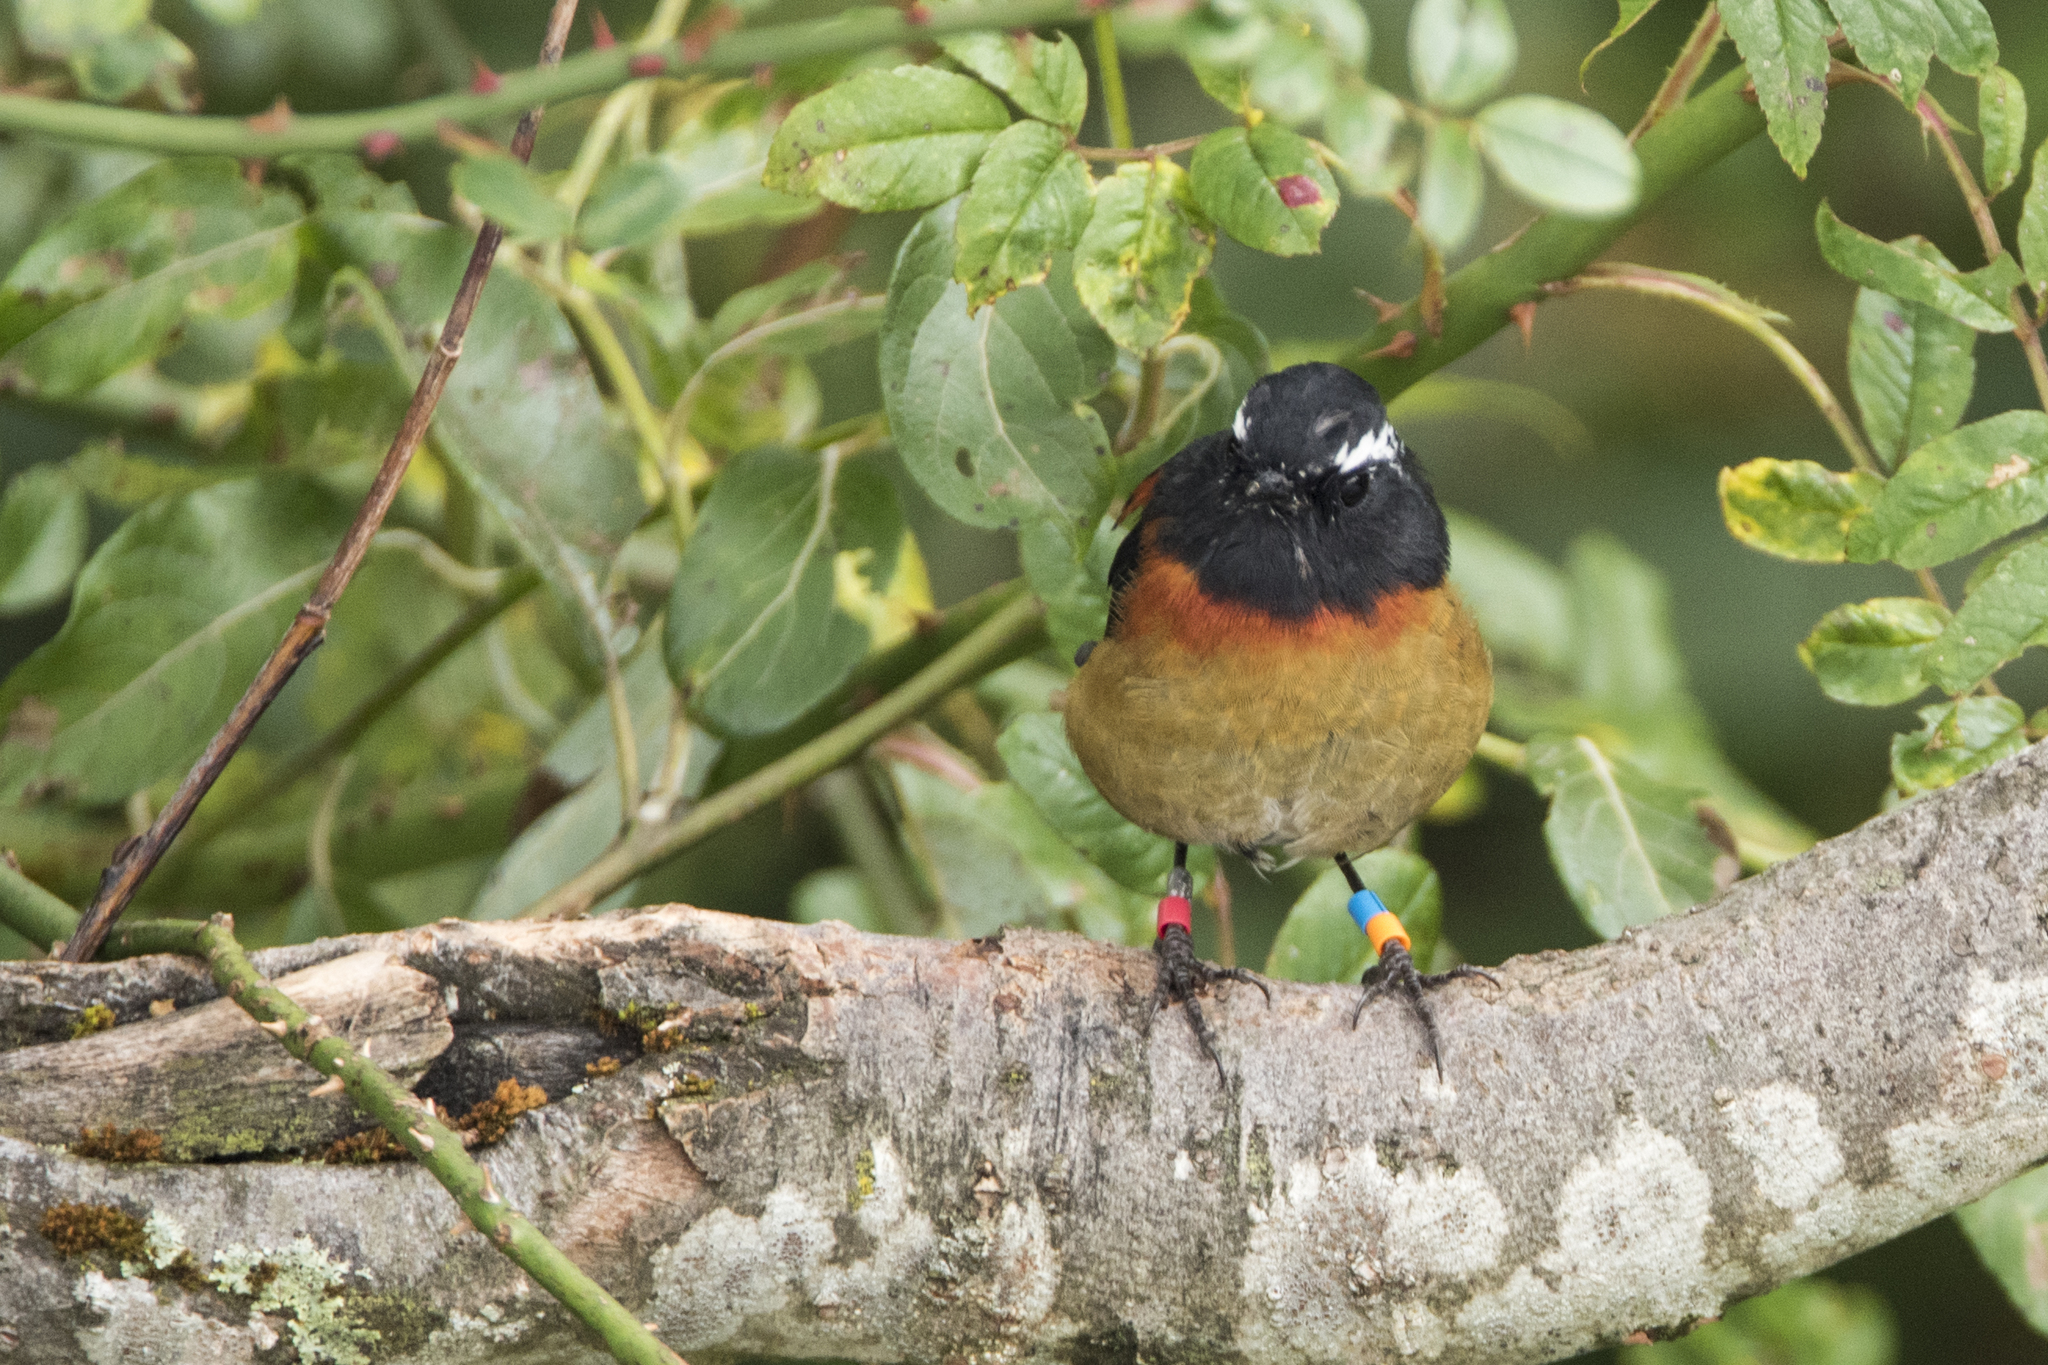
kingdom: Animalia
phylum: Chordata
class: Aves
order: Passeriformes
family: Muscicapidae
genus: Tarsiger
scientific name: Tarsiger johnstoniae
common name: Collared bush robin
